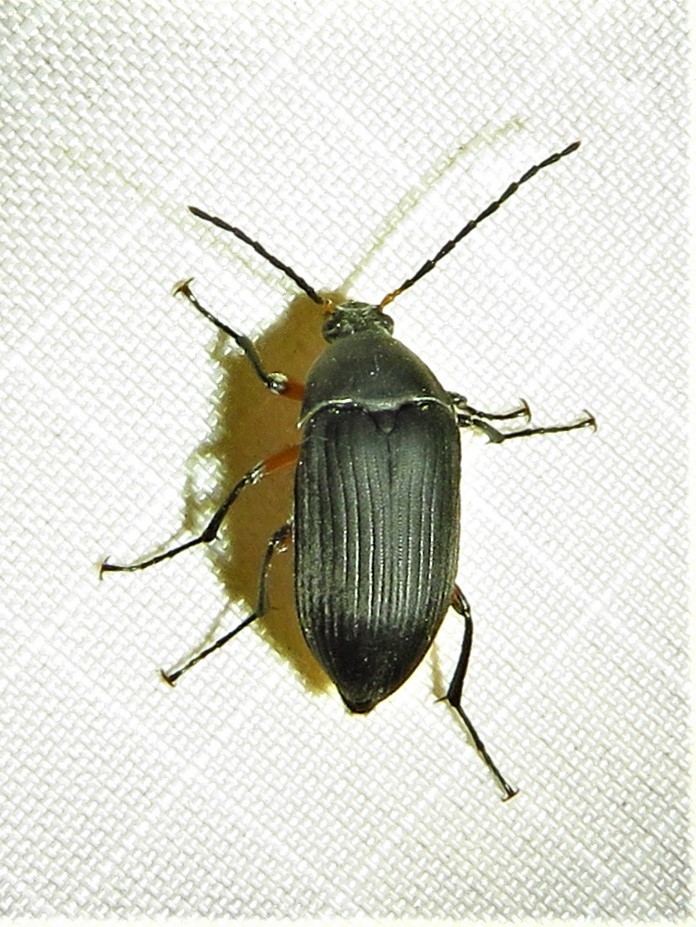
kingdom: Animalia
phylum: Arthropoda
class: Insecta
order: Coleoptera
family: Tenebrionidae
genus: Androchirus
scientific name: Androchirus femoralis
